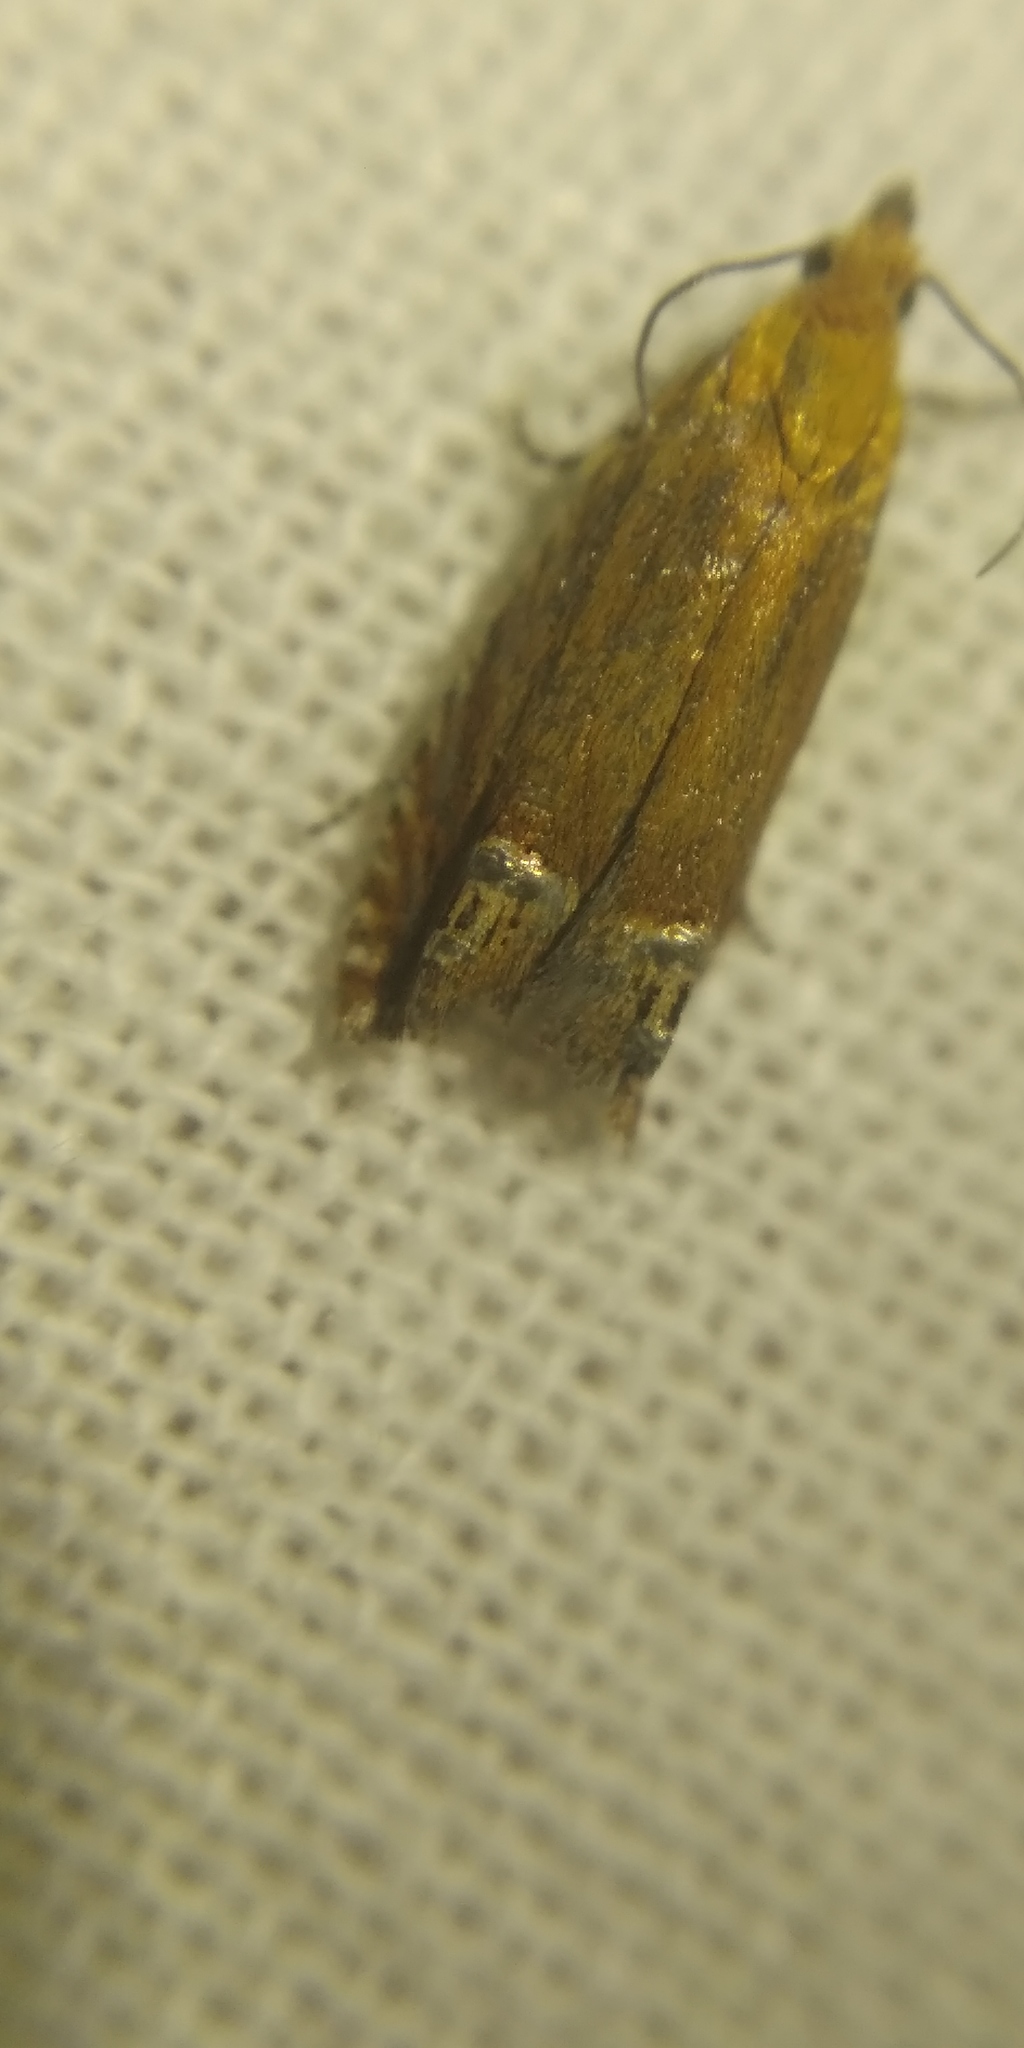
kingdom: Animalia
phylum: Arthropoda
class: Insecta
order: Lepidoptera
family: Tortricidae
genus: Lathronympha
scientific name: Lathronympha strigana
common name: Red piercer
